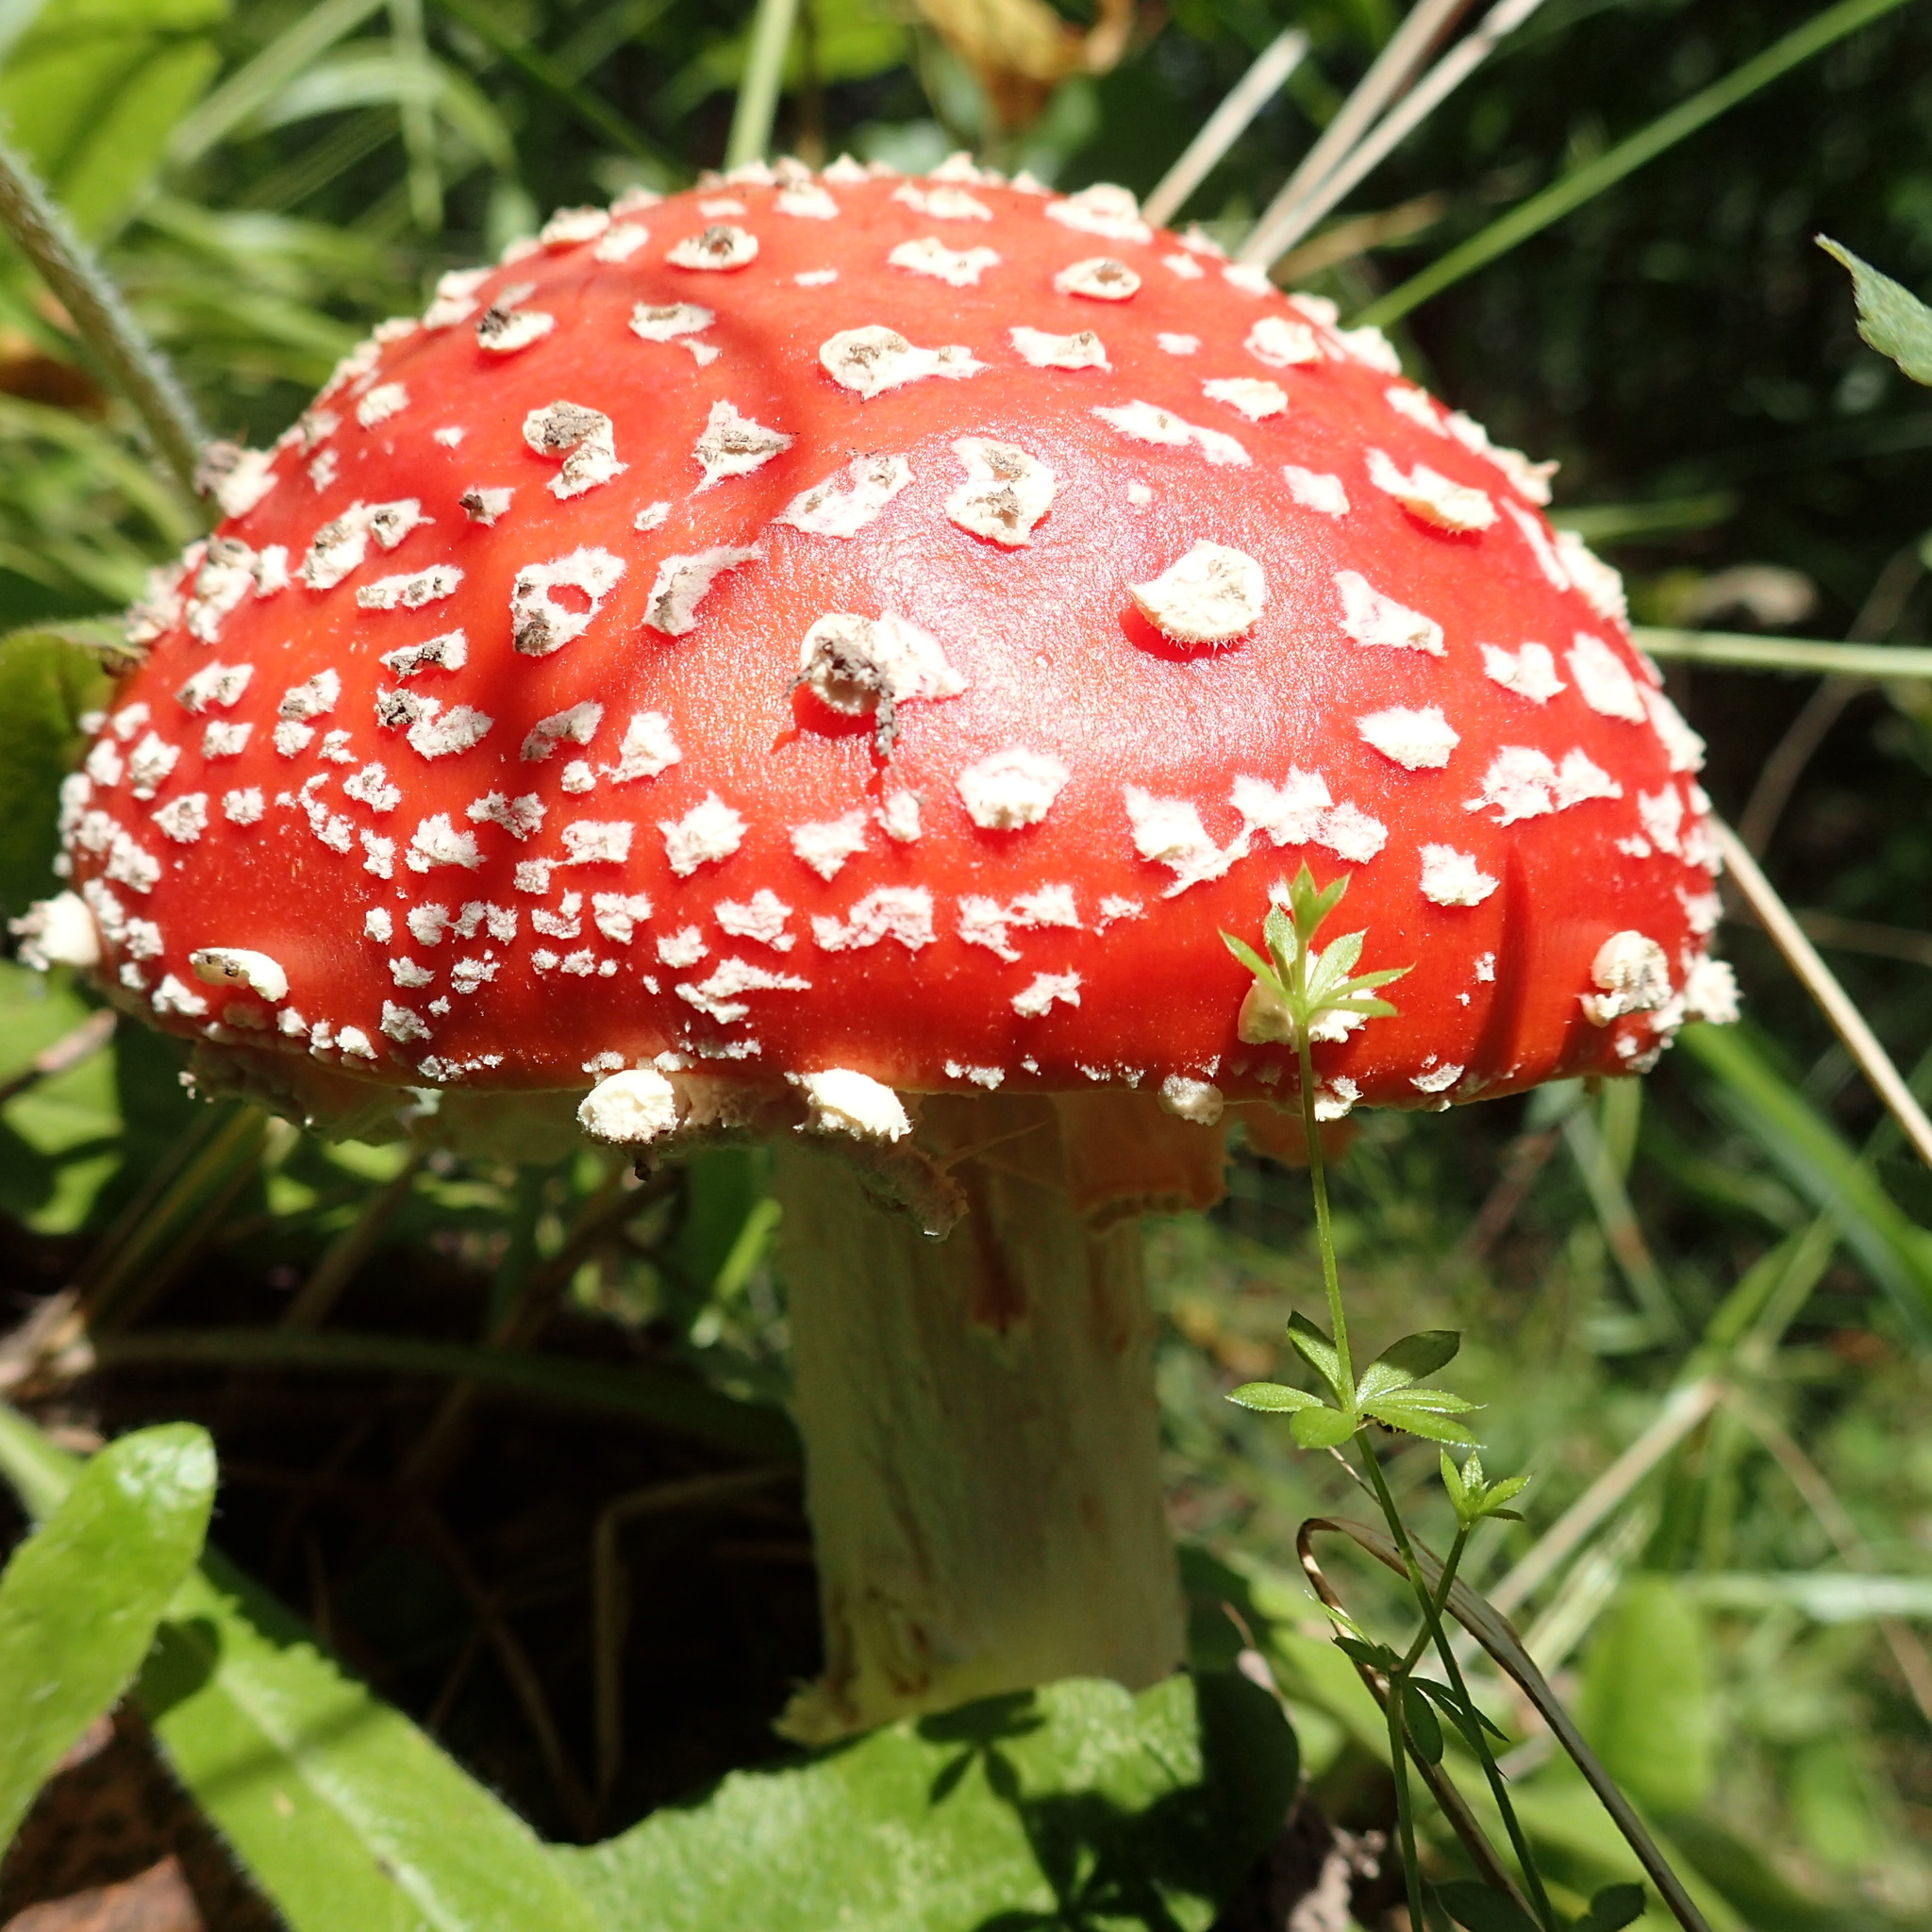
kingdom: Fungi
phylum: Basidiomycota
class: Agaricomycetes
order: Agaricales
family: Amanitaceae
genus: Amanita
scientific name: Amanita muscaria
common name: Fly agaric
